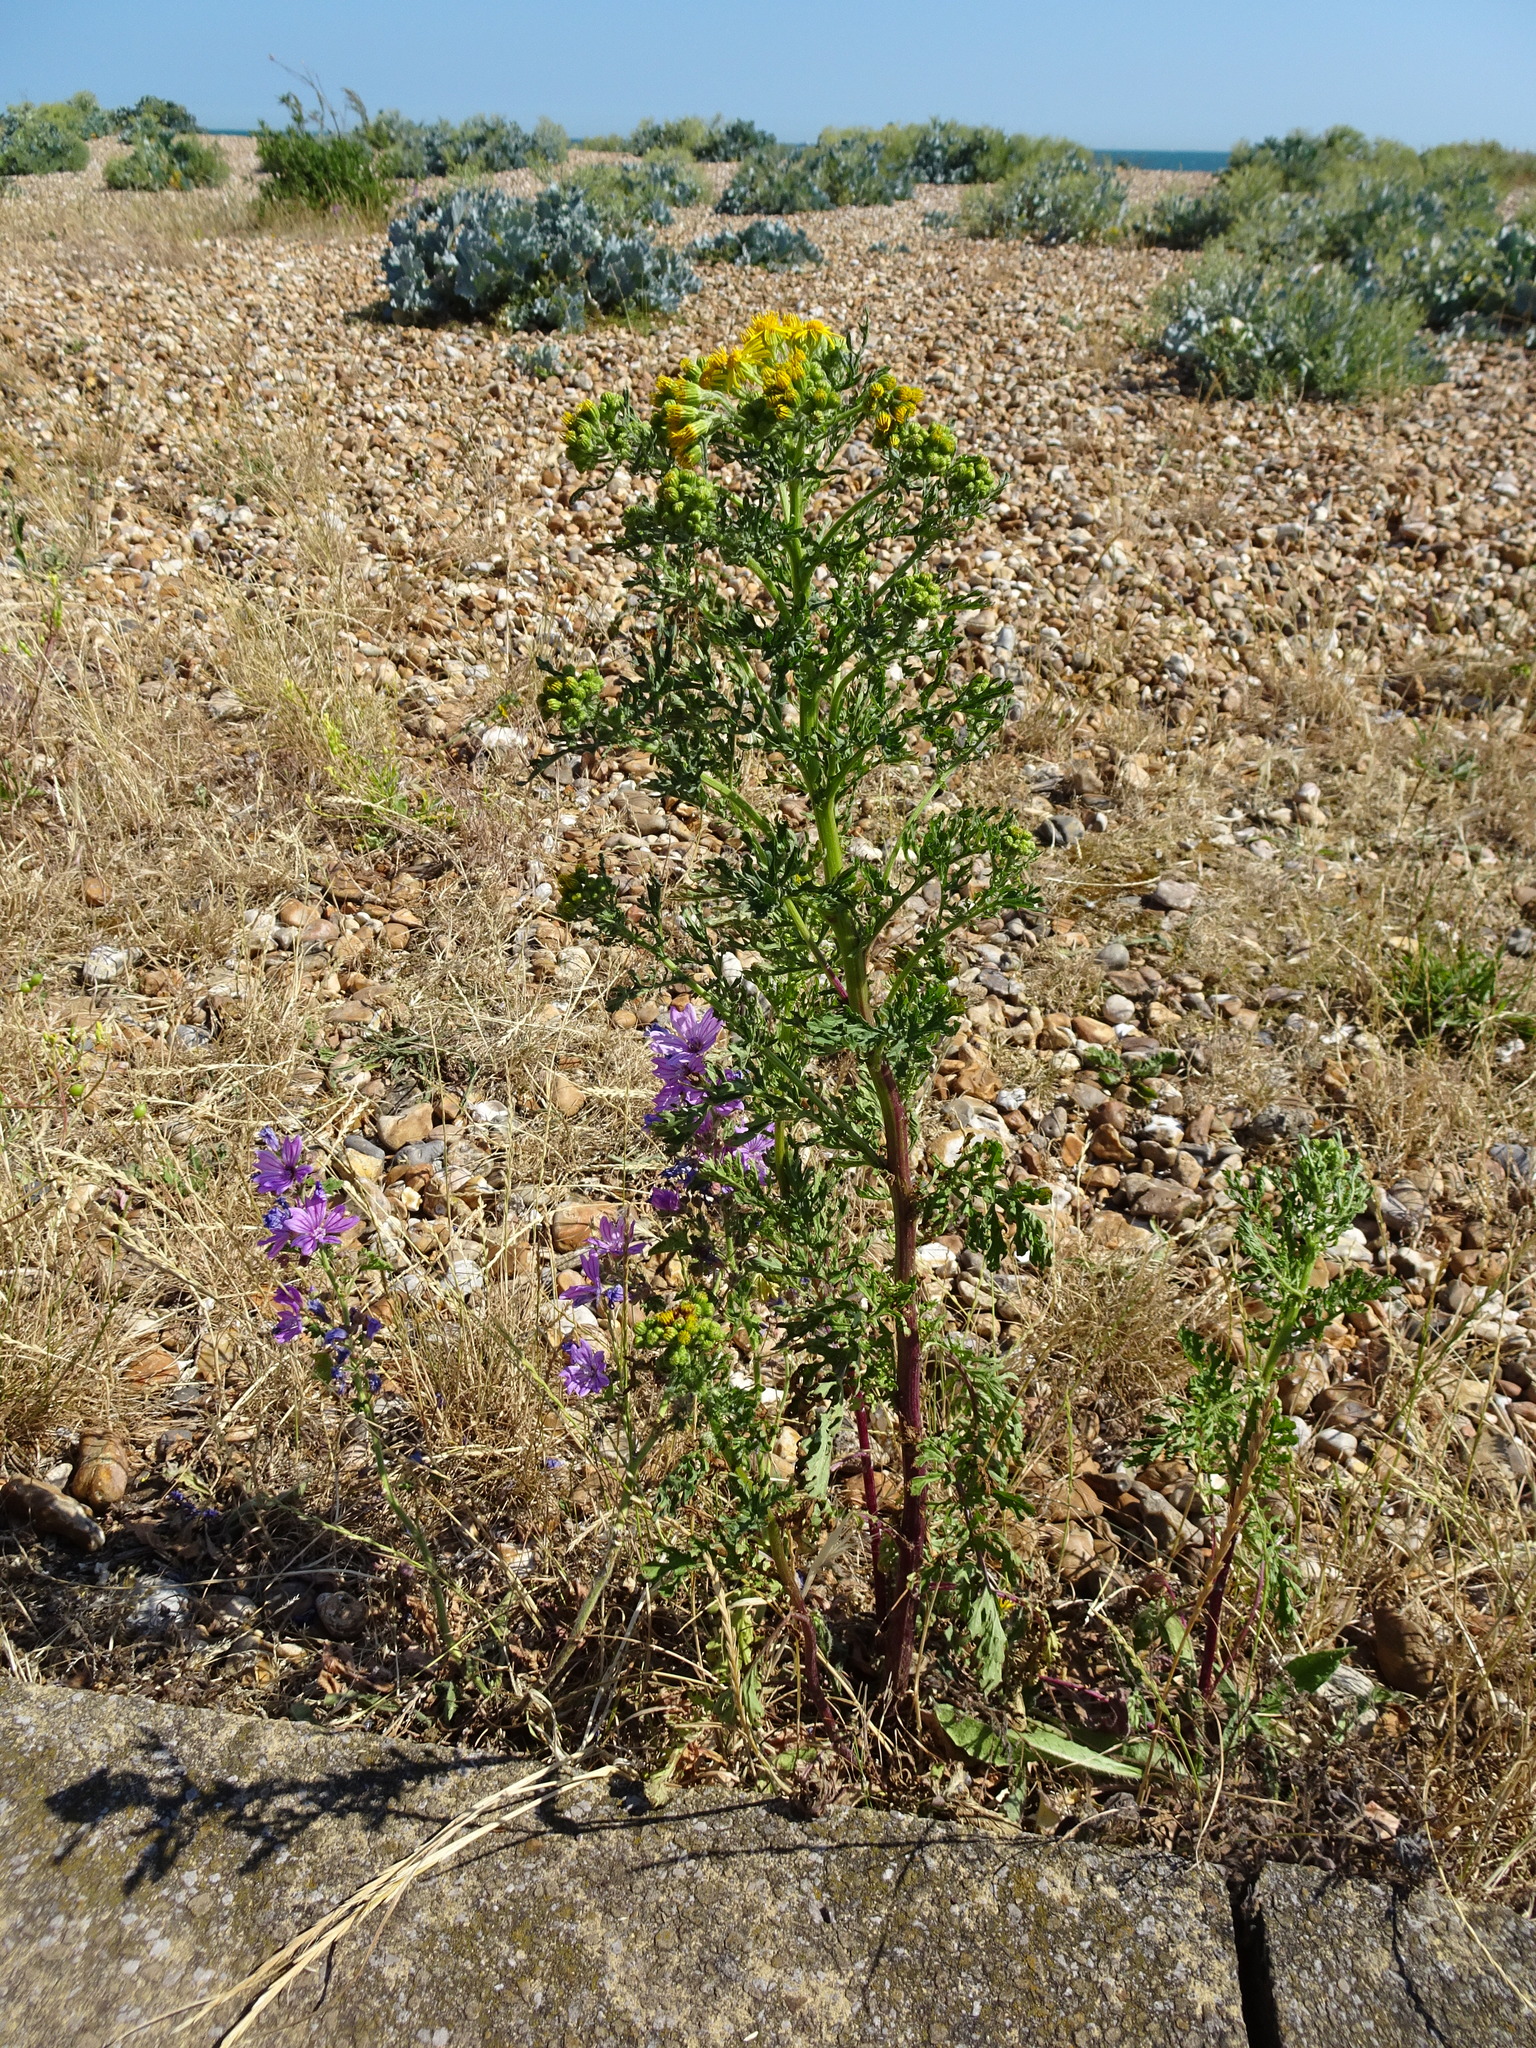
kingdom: Plantae
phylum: Tracheophyta
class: Magnoliopsida
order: Asterales
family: Asteraceae
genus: Jacobaea
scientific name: Jacobaea vulgaris
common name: Stinking willie
